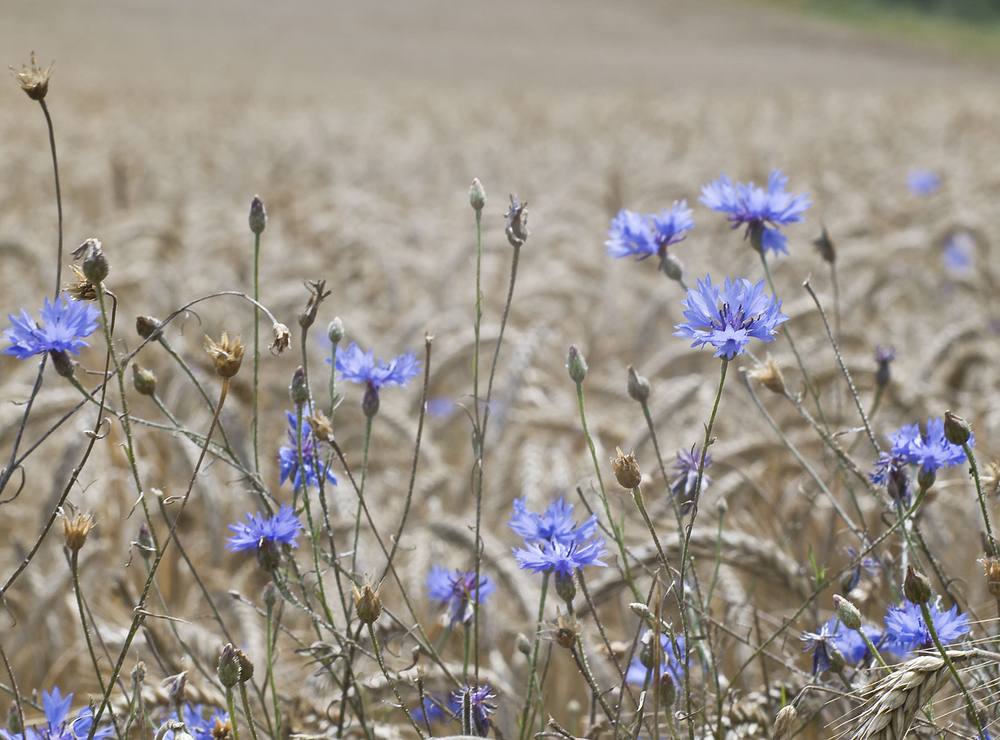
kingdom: Plantae
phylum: Tracheophyta
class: Magnoliopsida
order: Asterales
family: Asteraceae
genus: Centaurea
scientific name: Centaurea cyanus
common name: Cornflower
